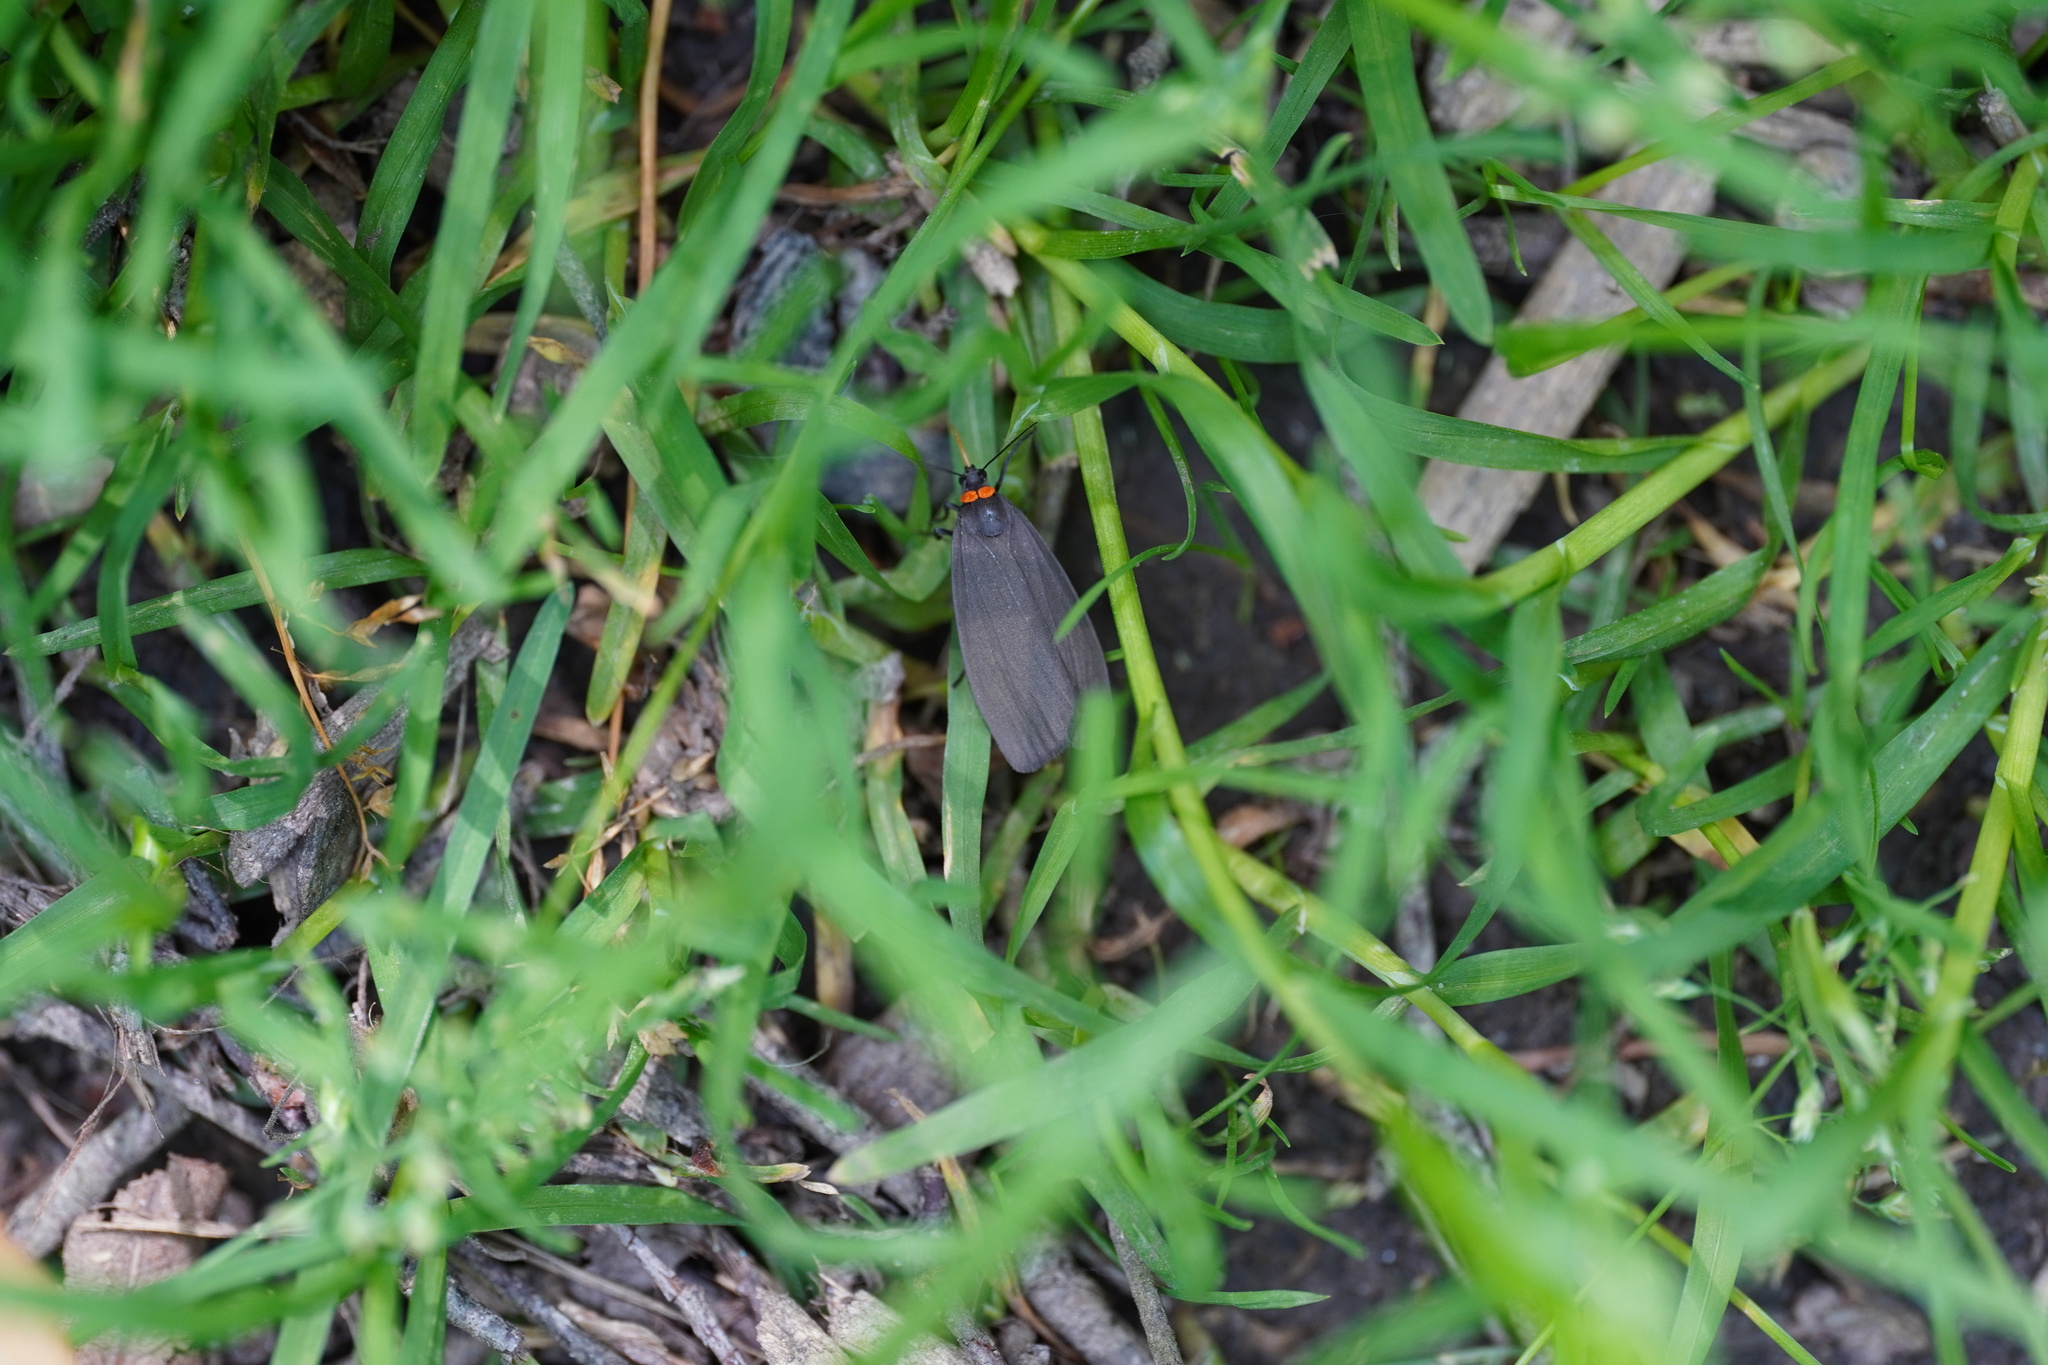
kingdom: Animalia
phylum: Arthropoda
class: Insecta
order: Lepidoptera
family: Erebidae
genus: Atolmis
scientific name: Atolmis rubricollis
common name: Red-necked footman
